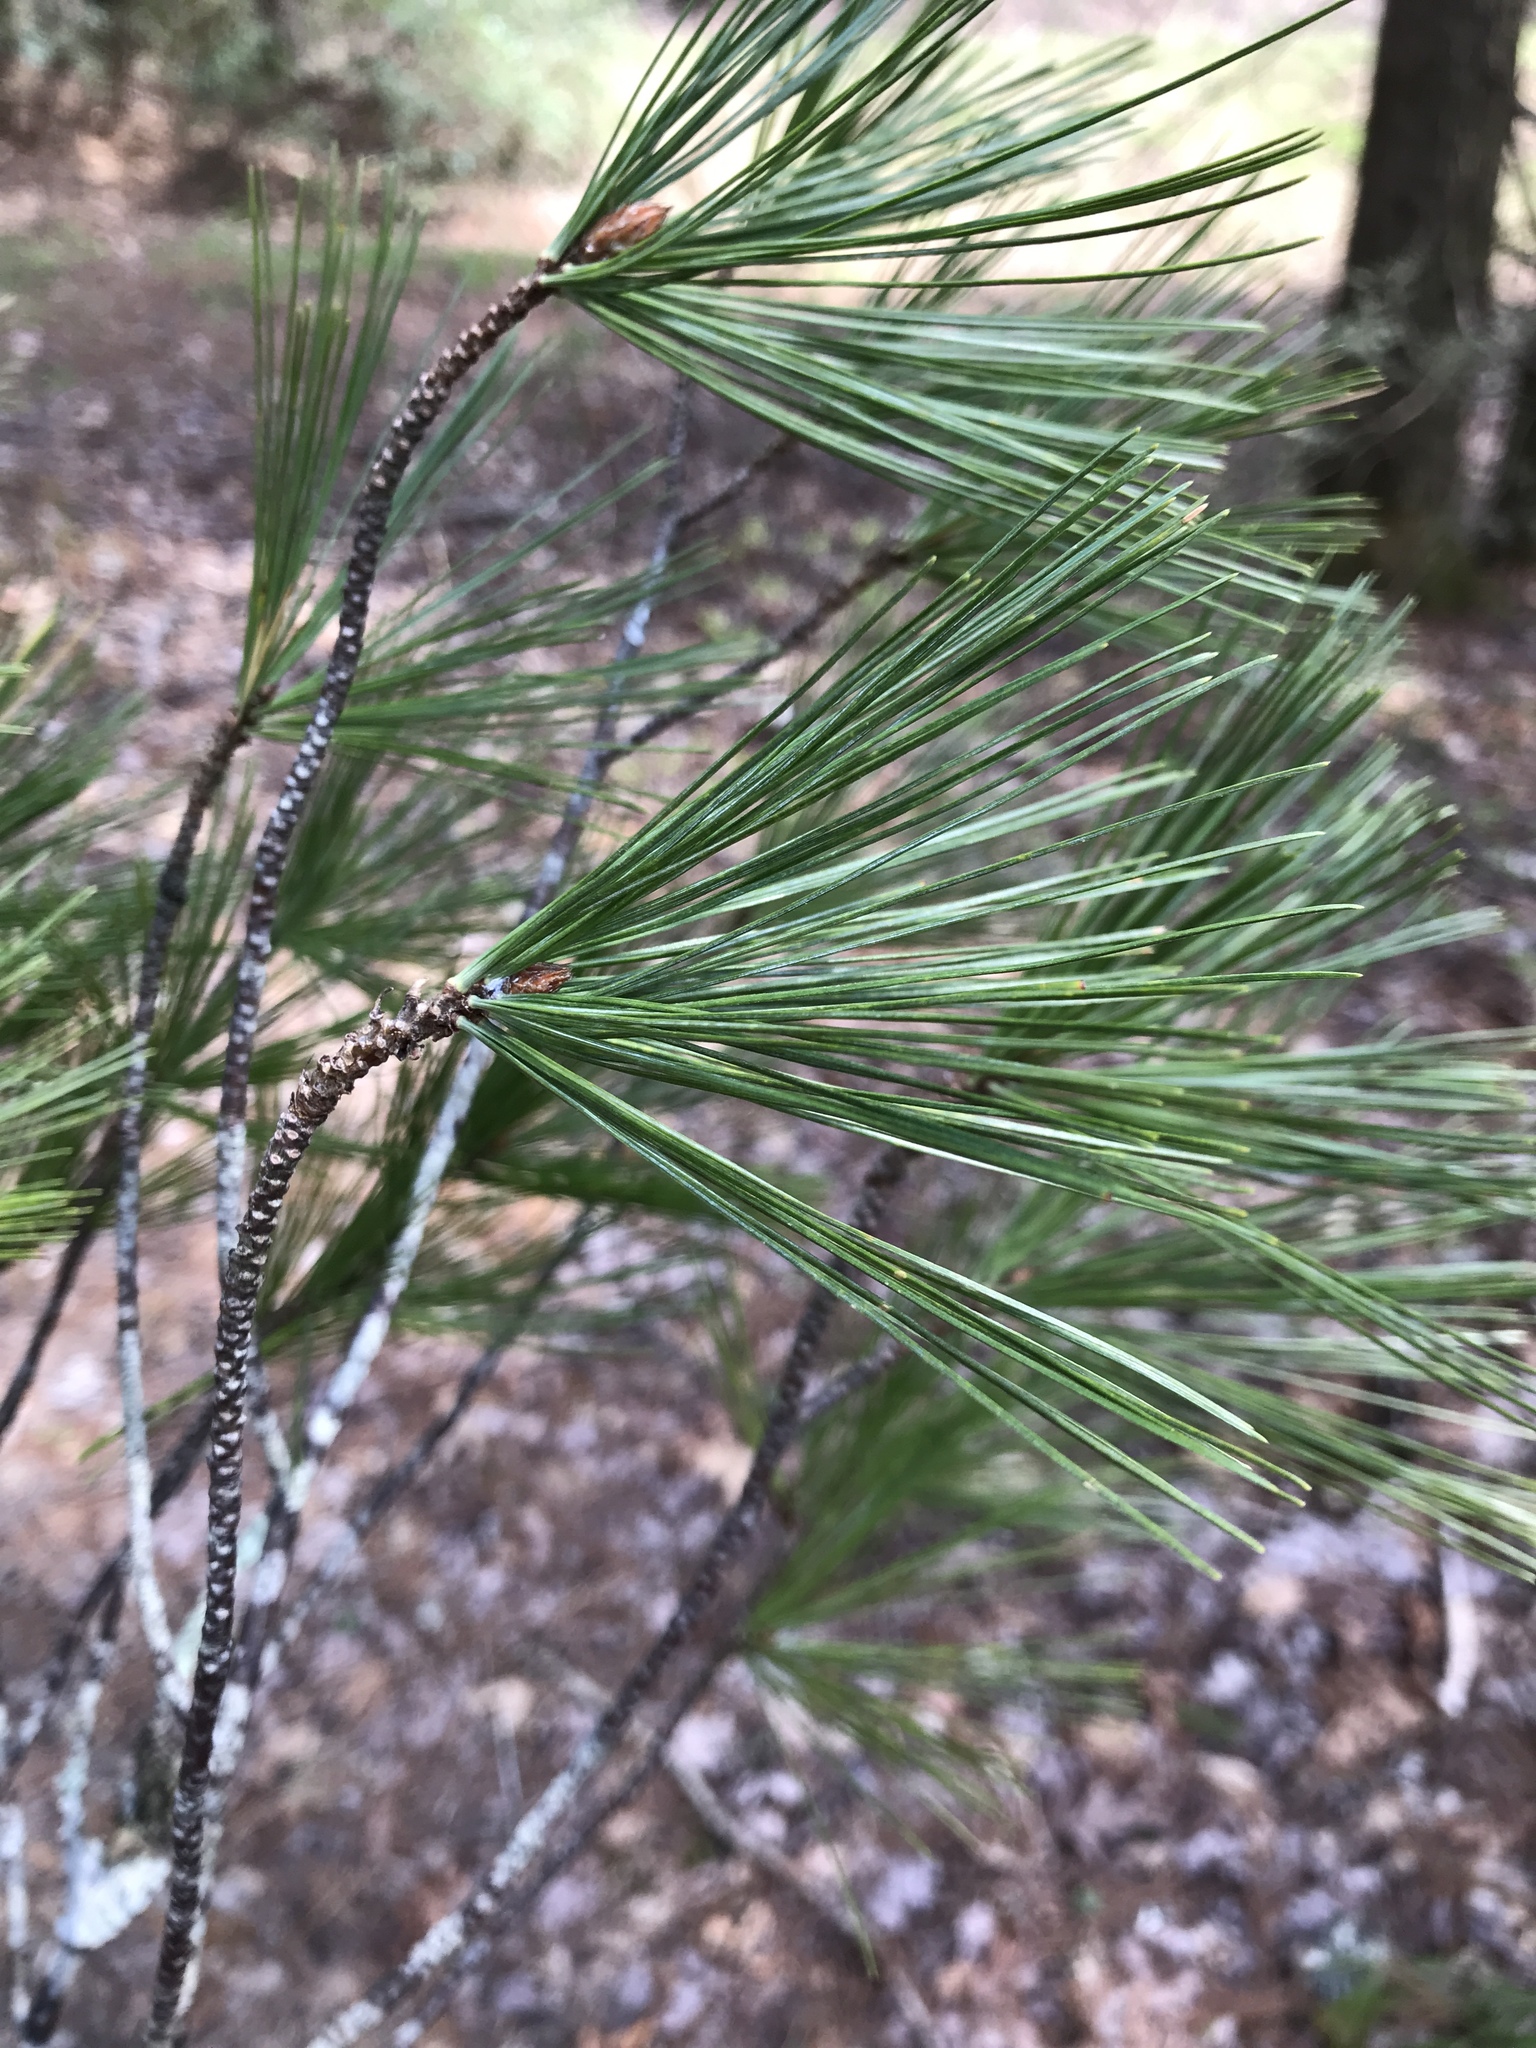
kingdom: Plantae
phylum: Tracheophyta
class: Pinopsida
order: Pinales
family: Pinaceae
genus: Pinus
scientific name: Pinus strobus
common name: Weymouth pine
